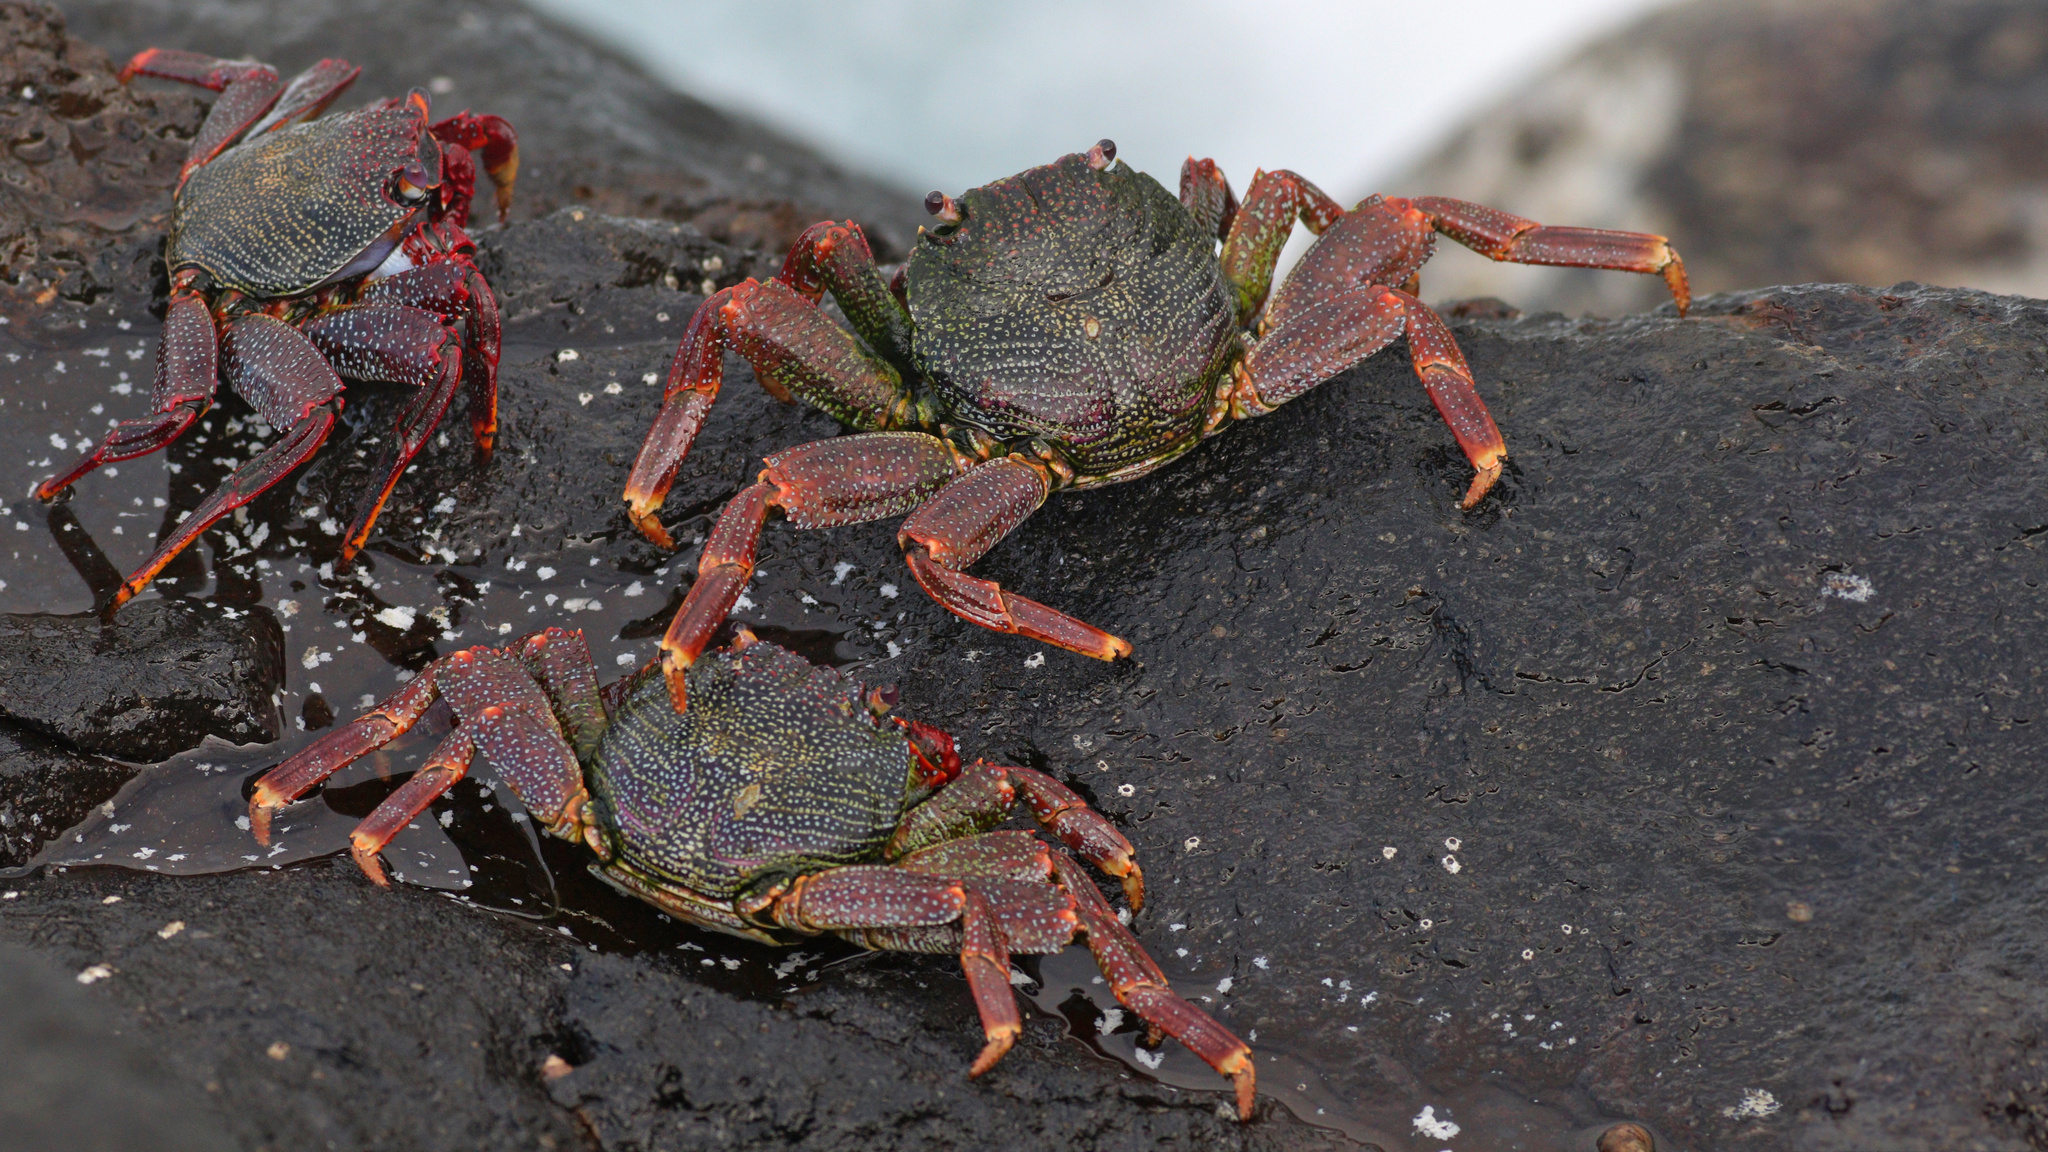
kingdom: Animalia
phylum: Arthropoda
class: Malacostraca
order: Decapoda
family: Grapsidae
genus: Grapsus
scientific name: Grapsus adscensionis
